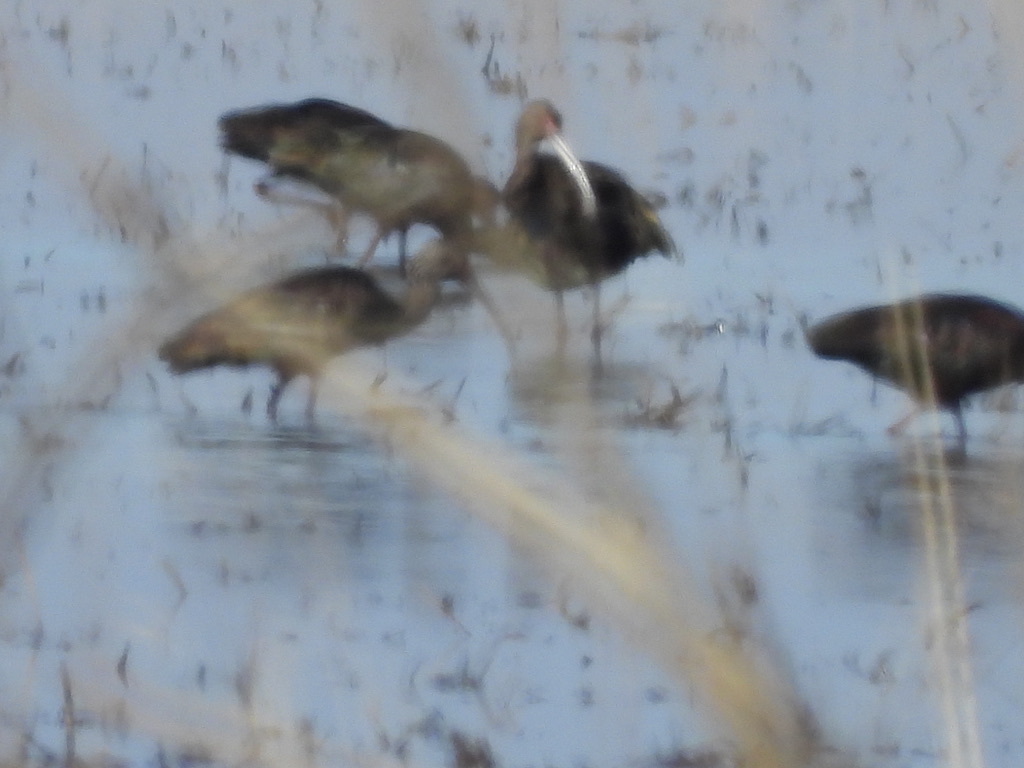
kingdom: Animalia
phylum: Chordata
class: Aves
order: Pelecaniformes
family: Threskiornithidae
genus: Plegadis
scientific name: Plegadis chihi
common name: White-faced ibis
